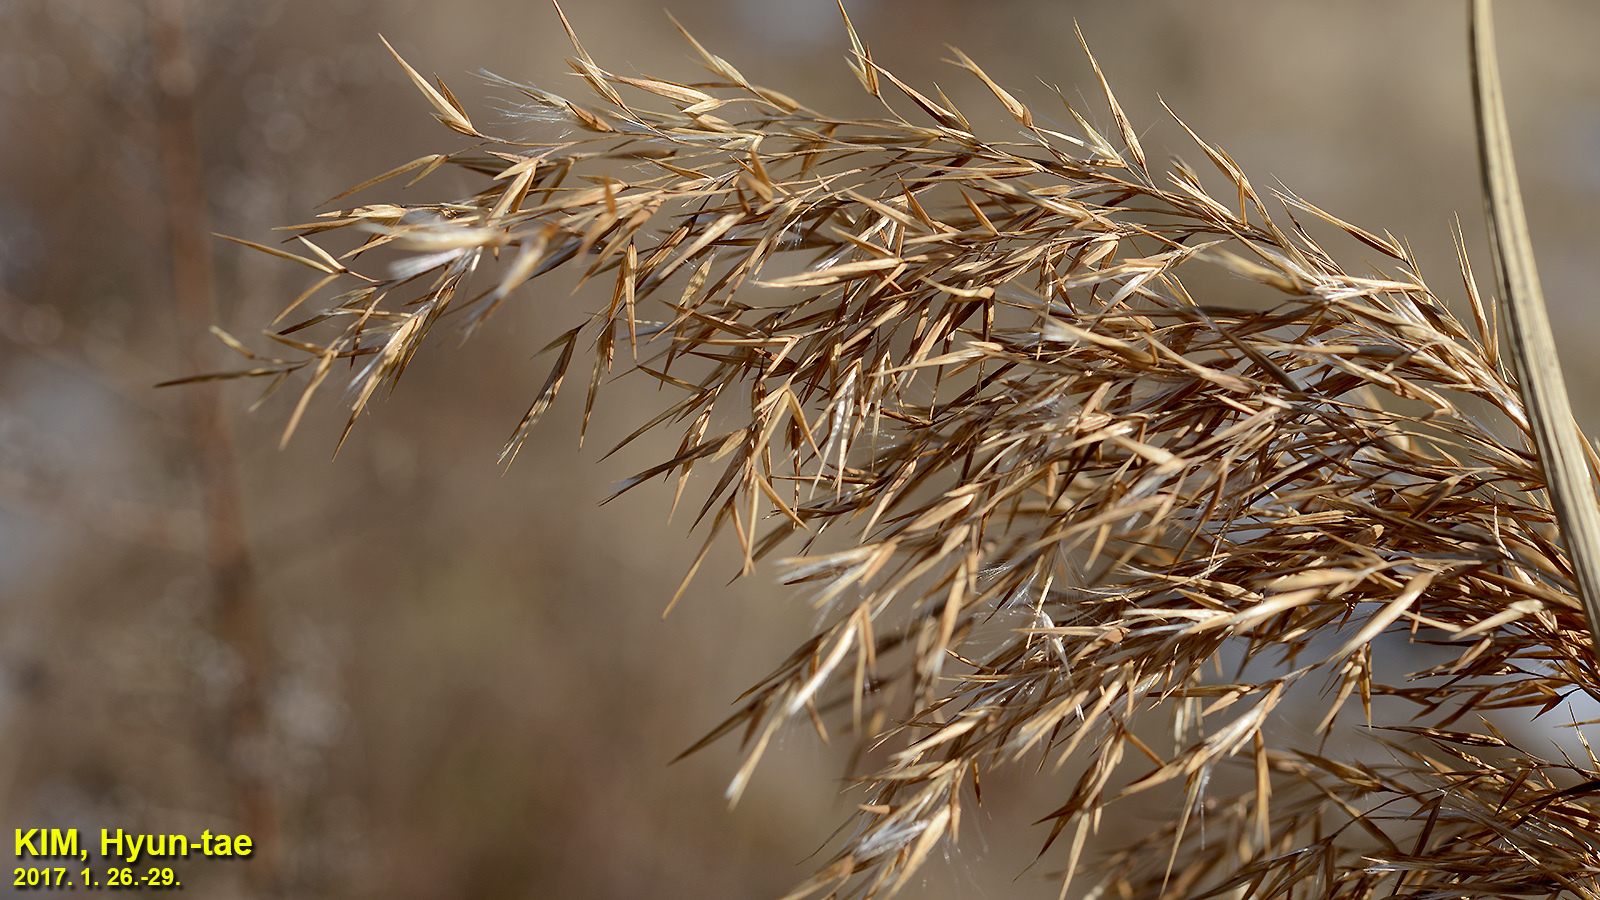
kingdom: Plantae
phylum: Tracheophyta
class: Liliopsida
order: Poales
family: Poaceae
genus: Phragmites
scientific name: Phragmites australis
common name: Common reed
